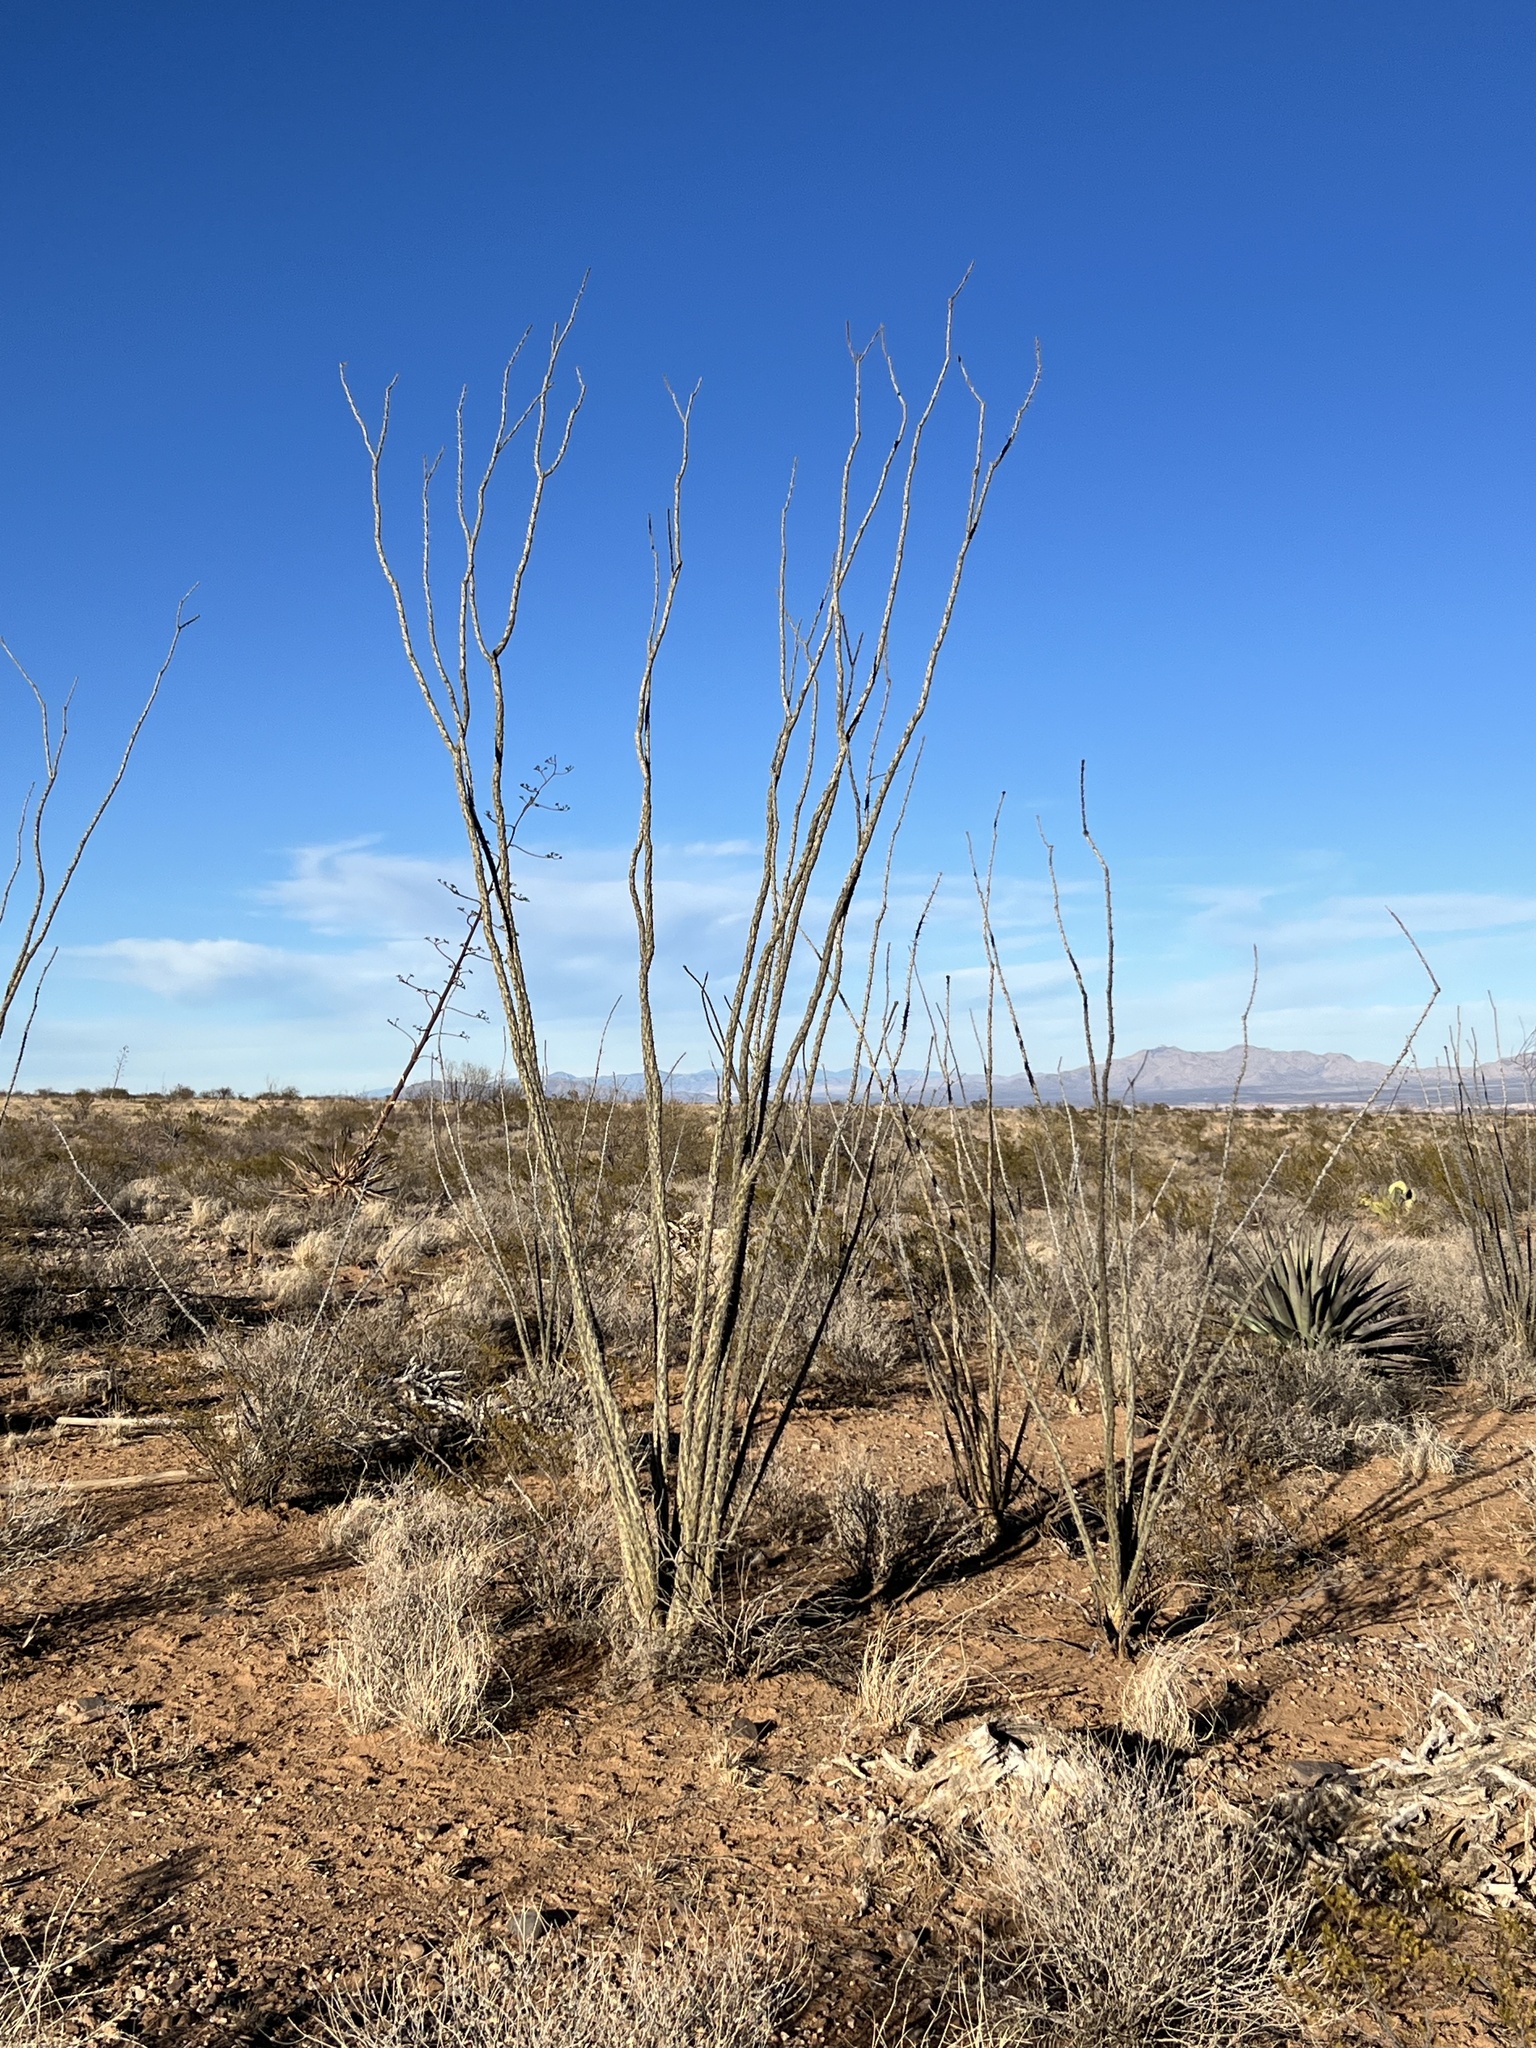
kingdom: Plantae
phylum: Tracheophyta
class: Magnoliopsida
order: Ericales
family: Fouquieriaceae
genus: Fouquieria
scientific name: Fouquieria splendens
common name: Vine-cactus
